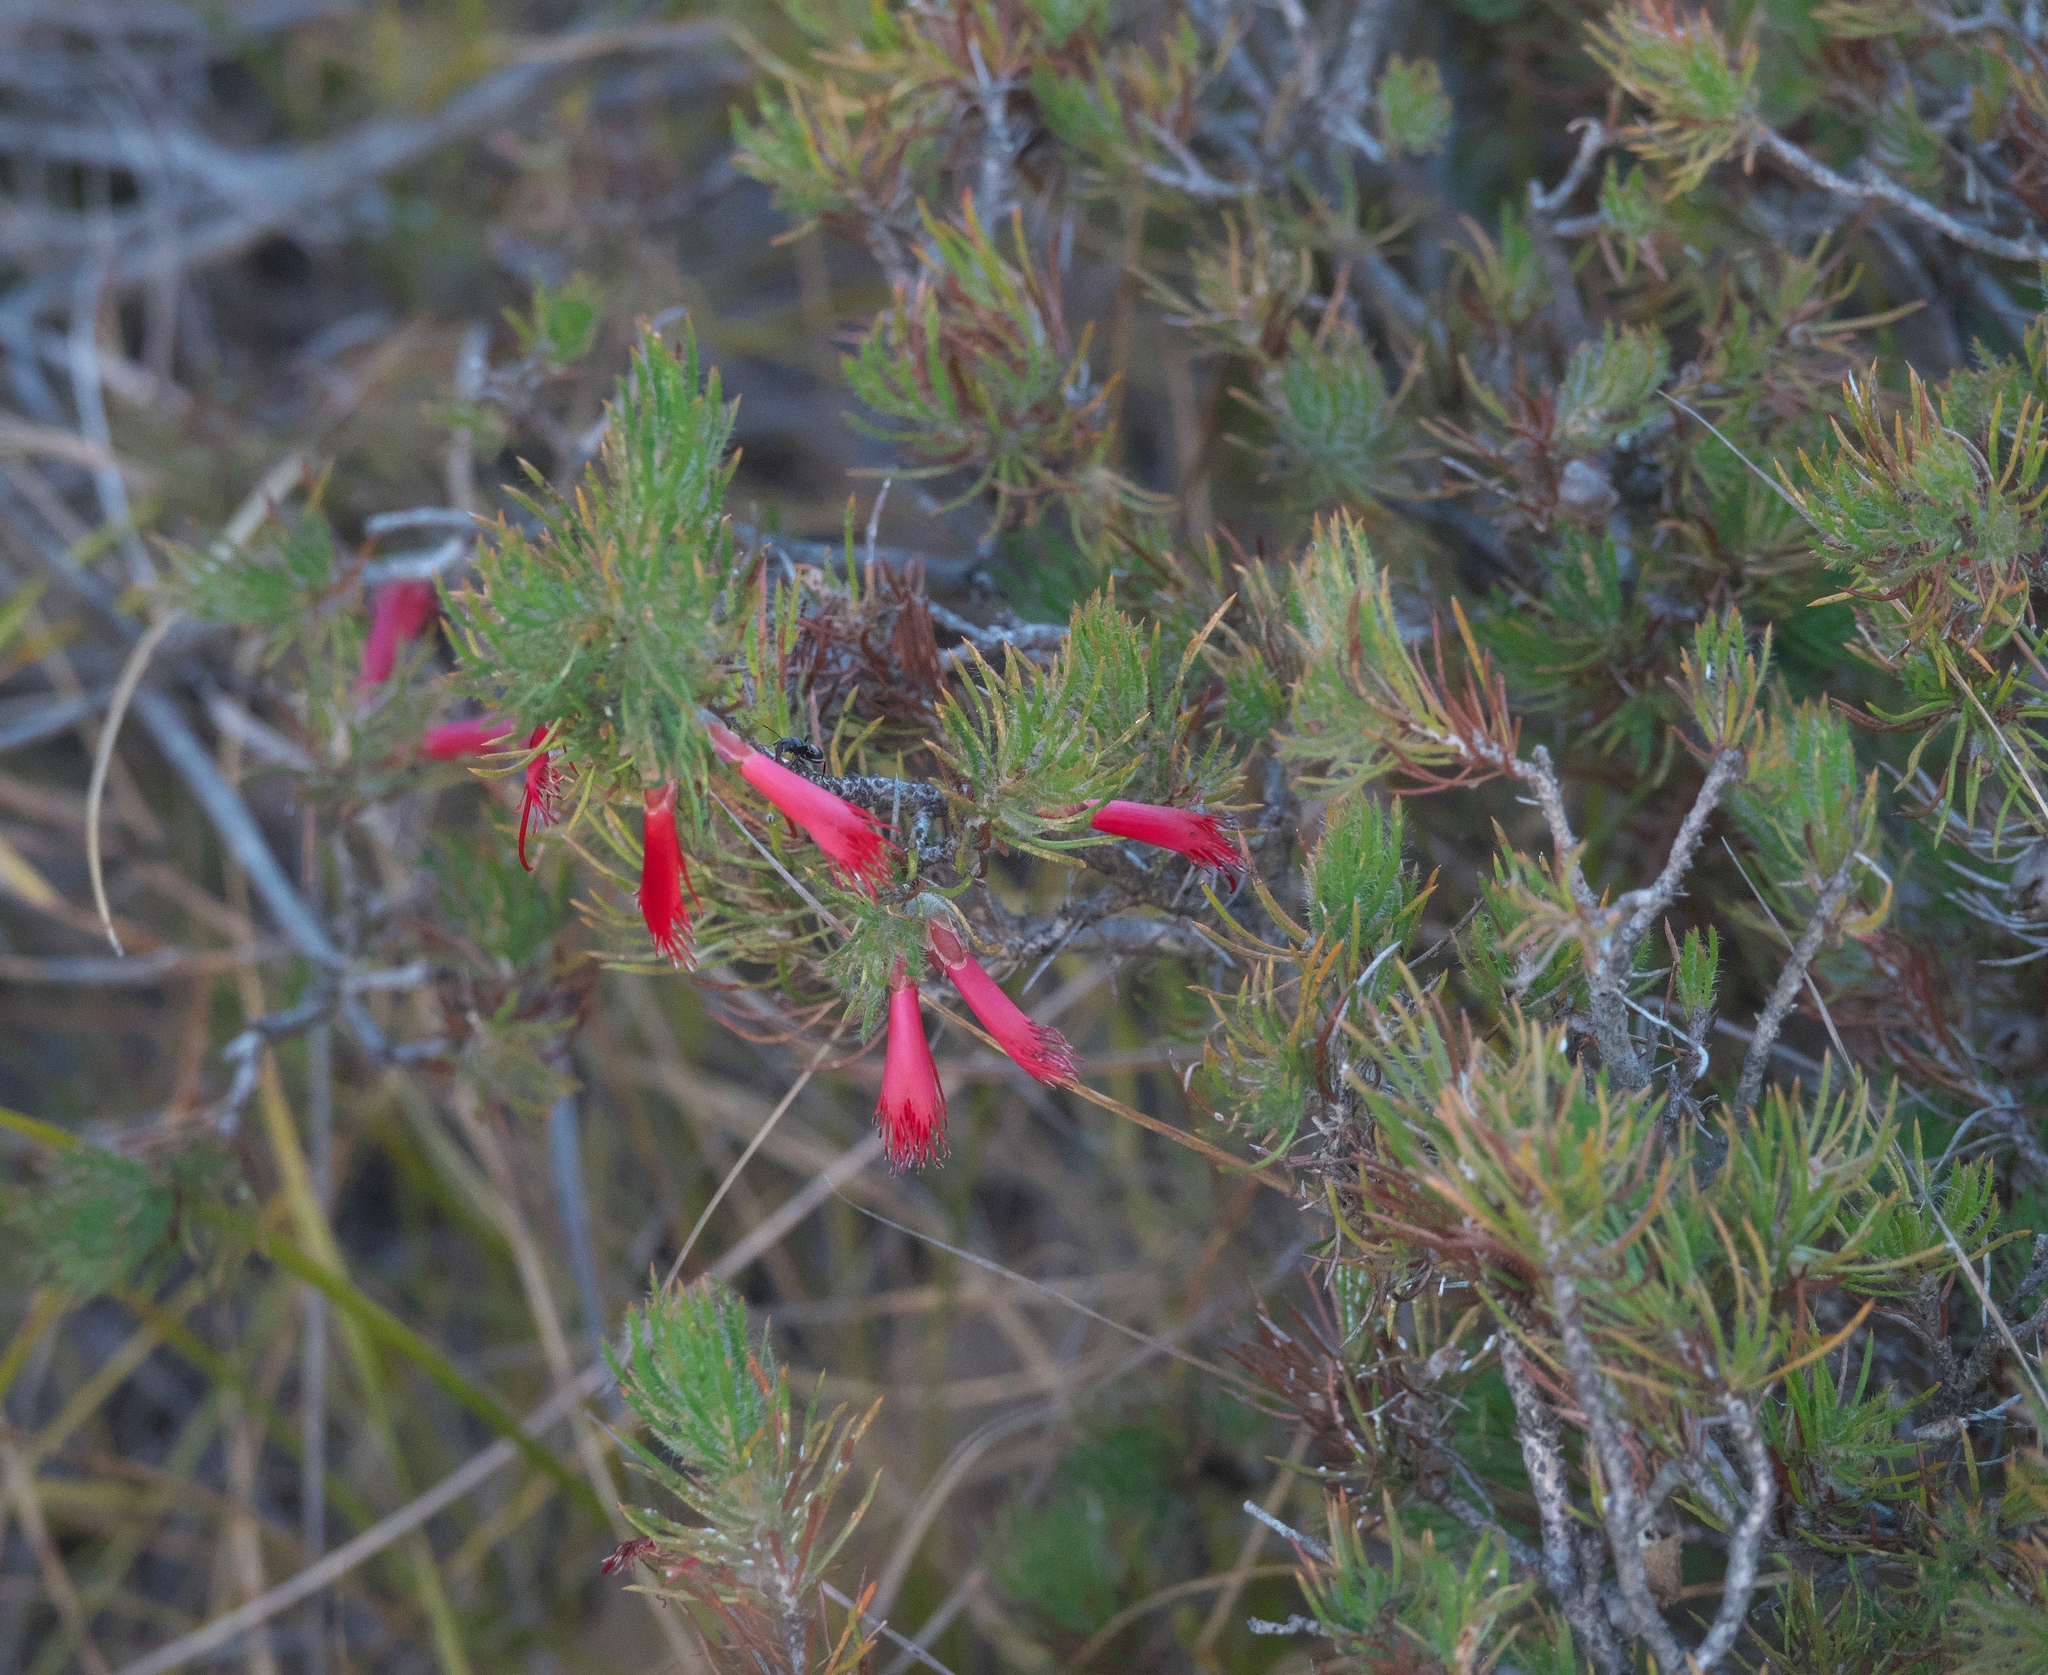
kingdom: Plantae
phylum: Tracheophyta
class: Magnoliopsida
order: Myrtales
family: Myrtaceae
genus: Melaleuca
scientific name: Melaleuca cruenta
